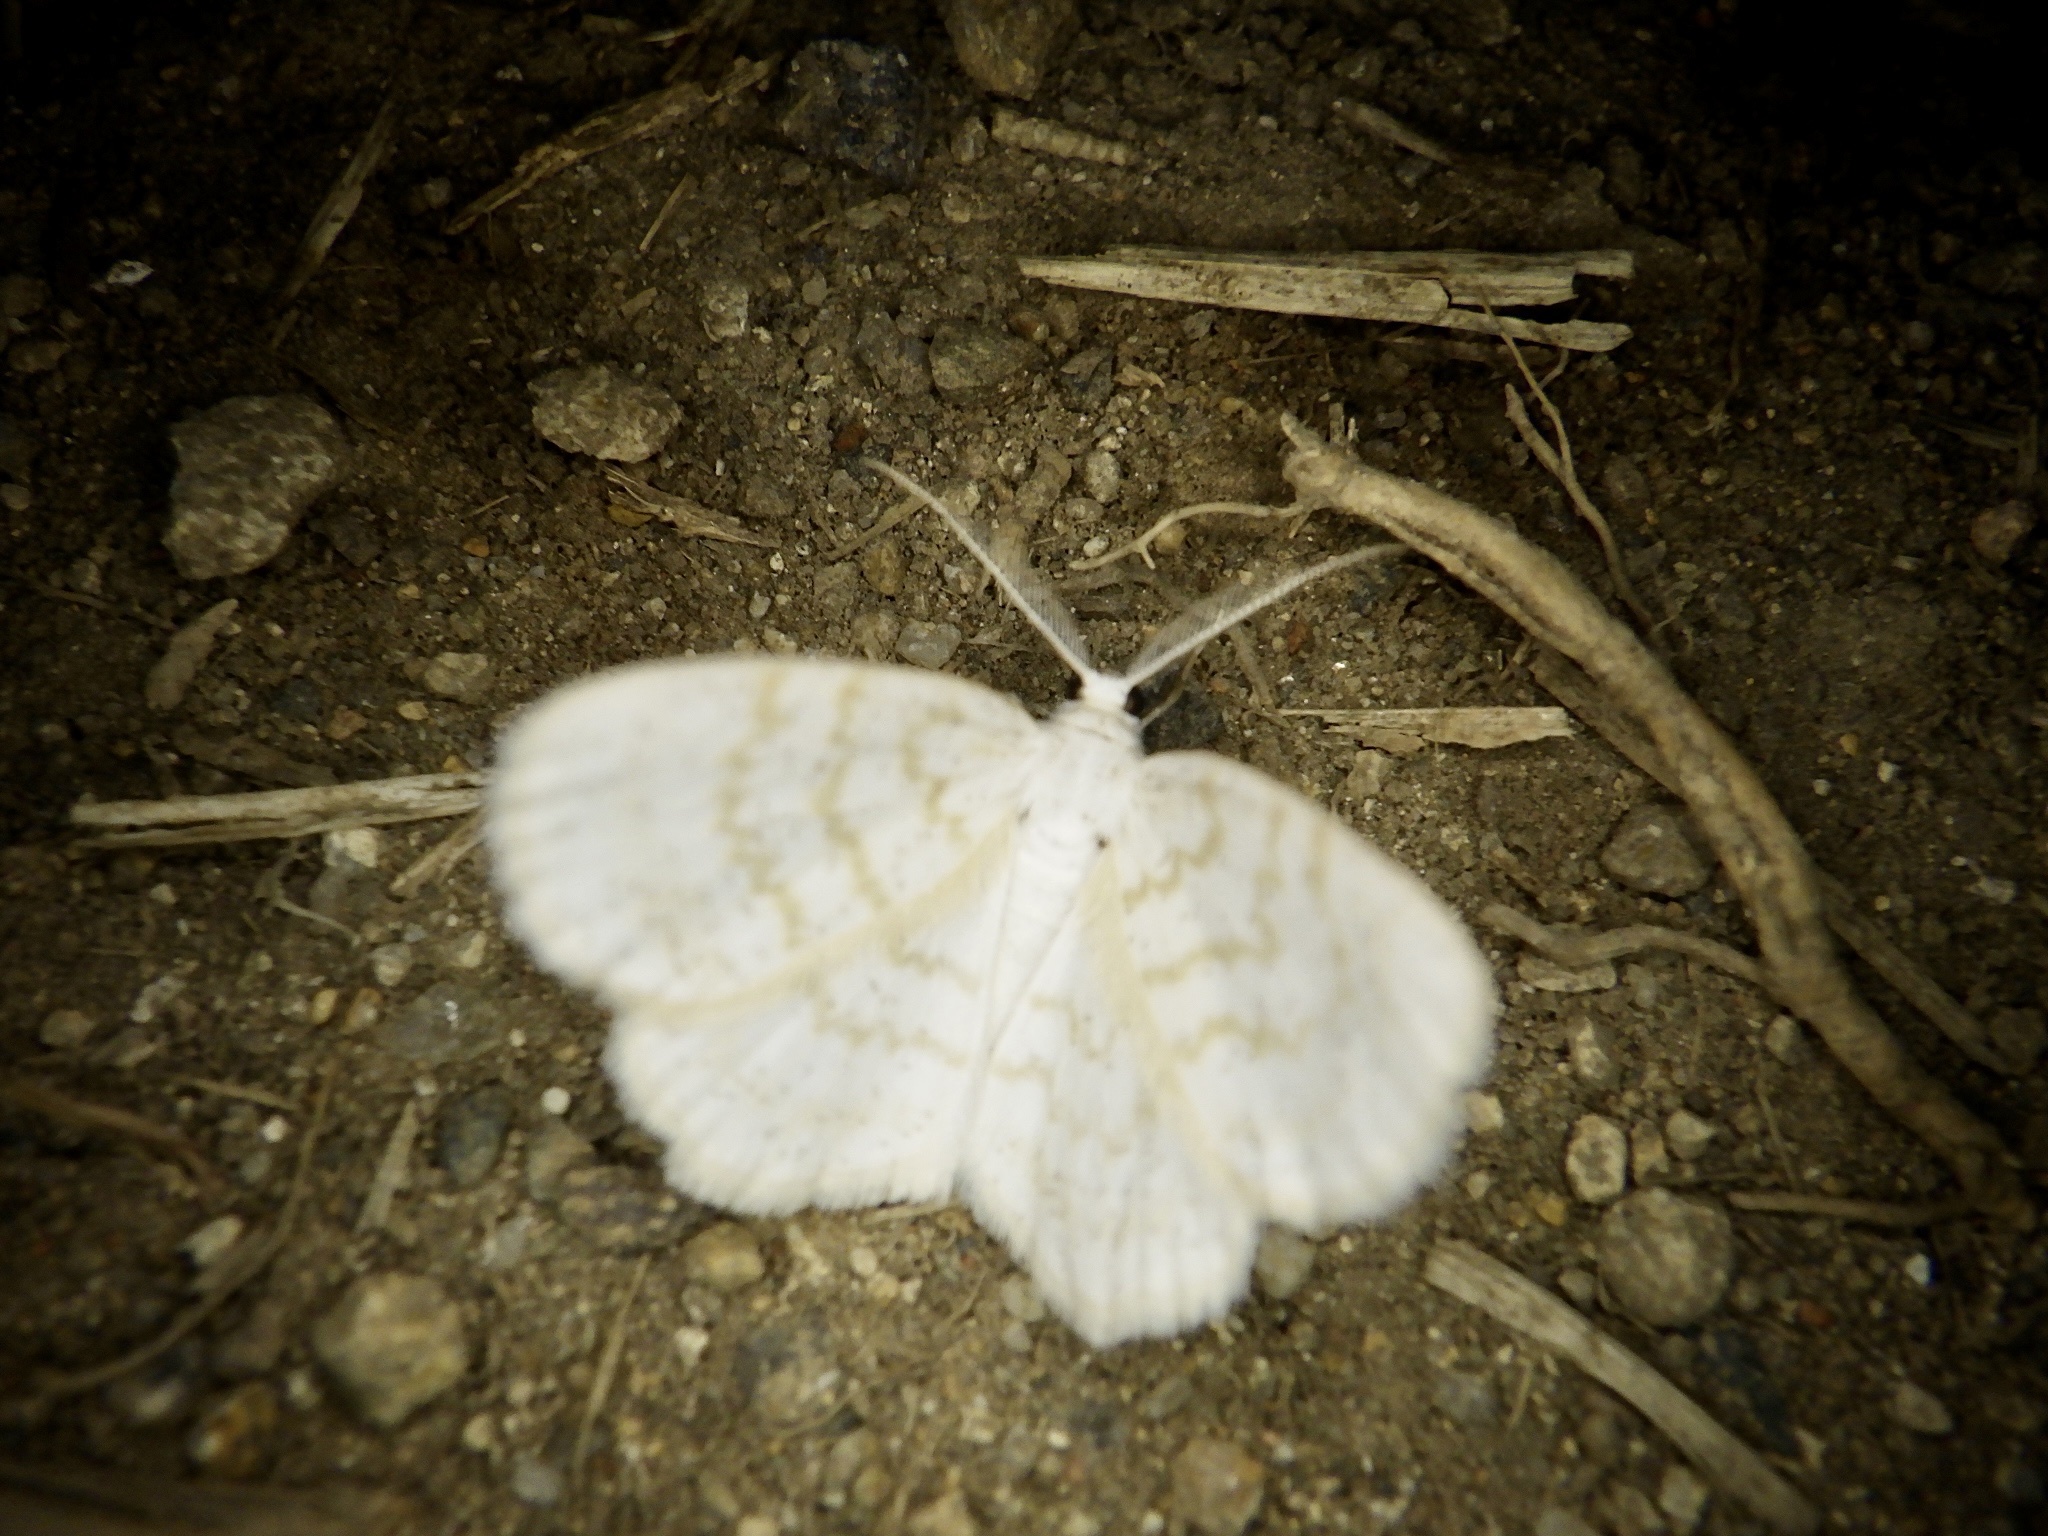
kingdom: Animalia
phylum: Arthropoda
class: Insecta
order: Lepidoptera
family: Geometridae
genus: Cabera
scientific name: Cabera purus
